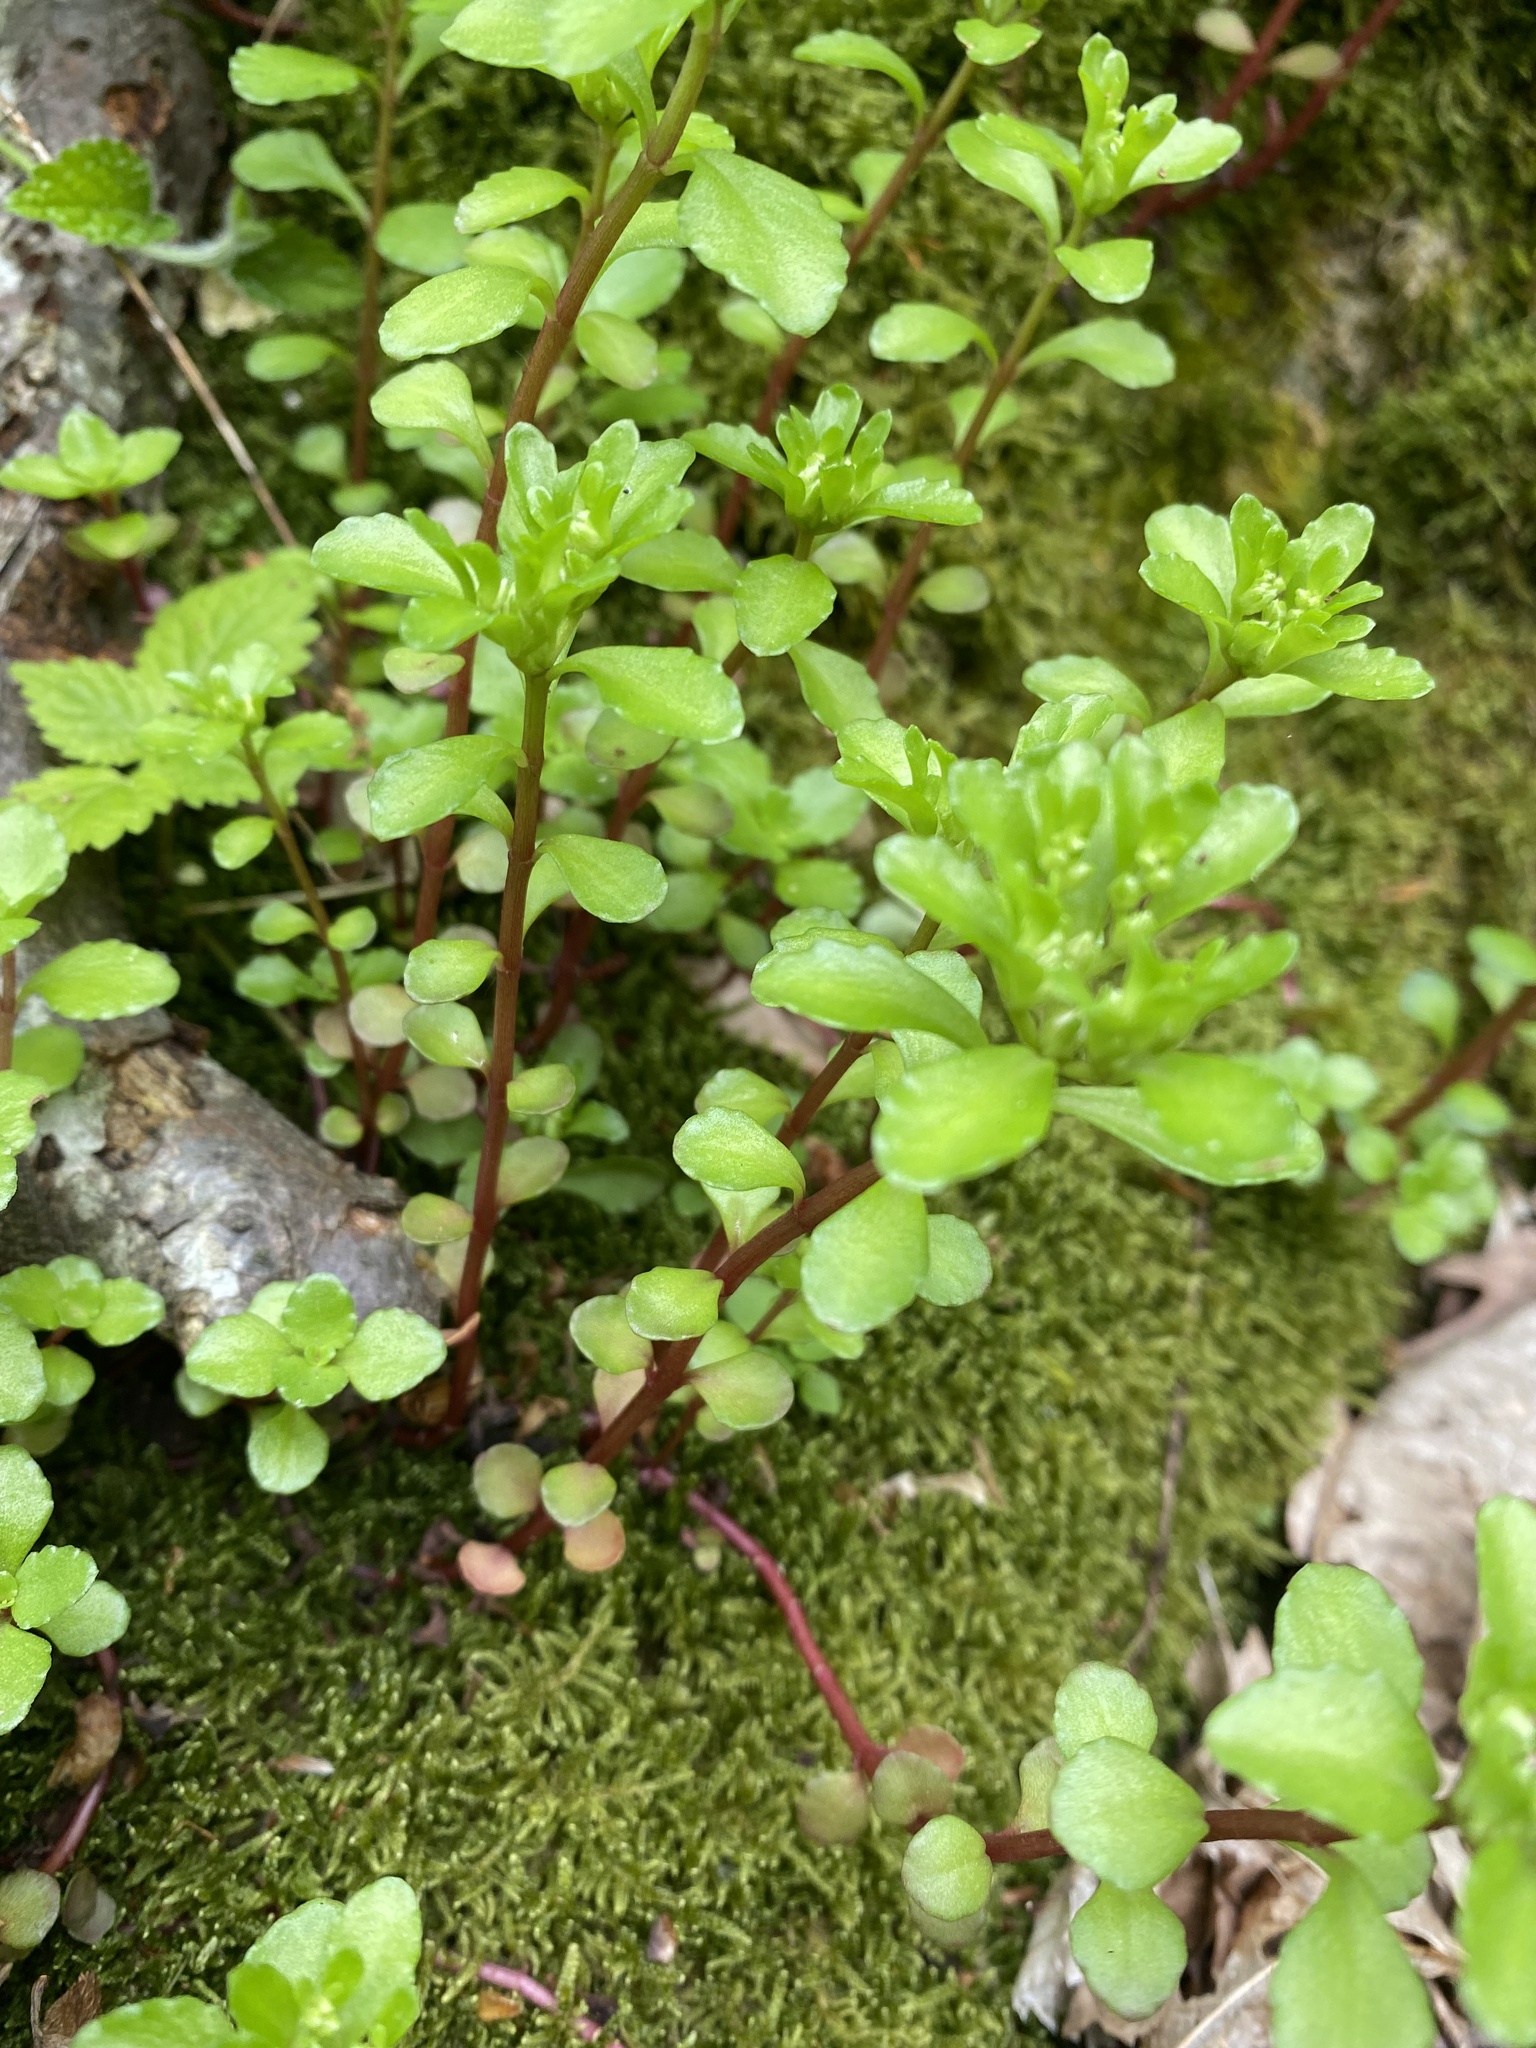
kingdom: Plantae
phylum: Tracheophyta
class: Magnoliopsida
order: Saxifragales
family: Crassulaceae
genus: Phedimus
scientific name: Phedimus stolonifer
